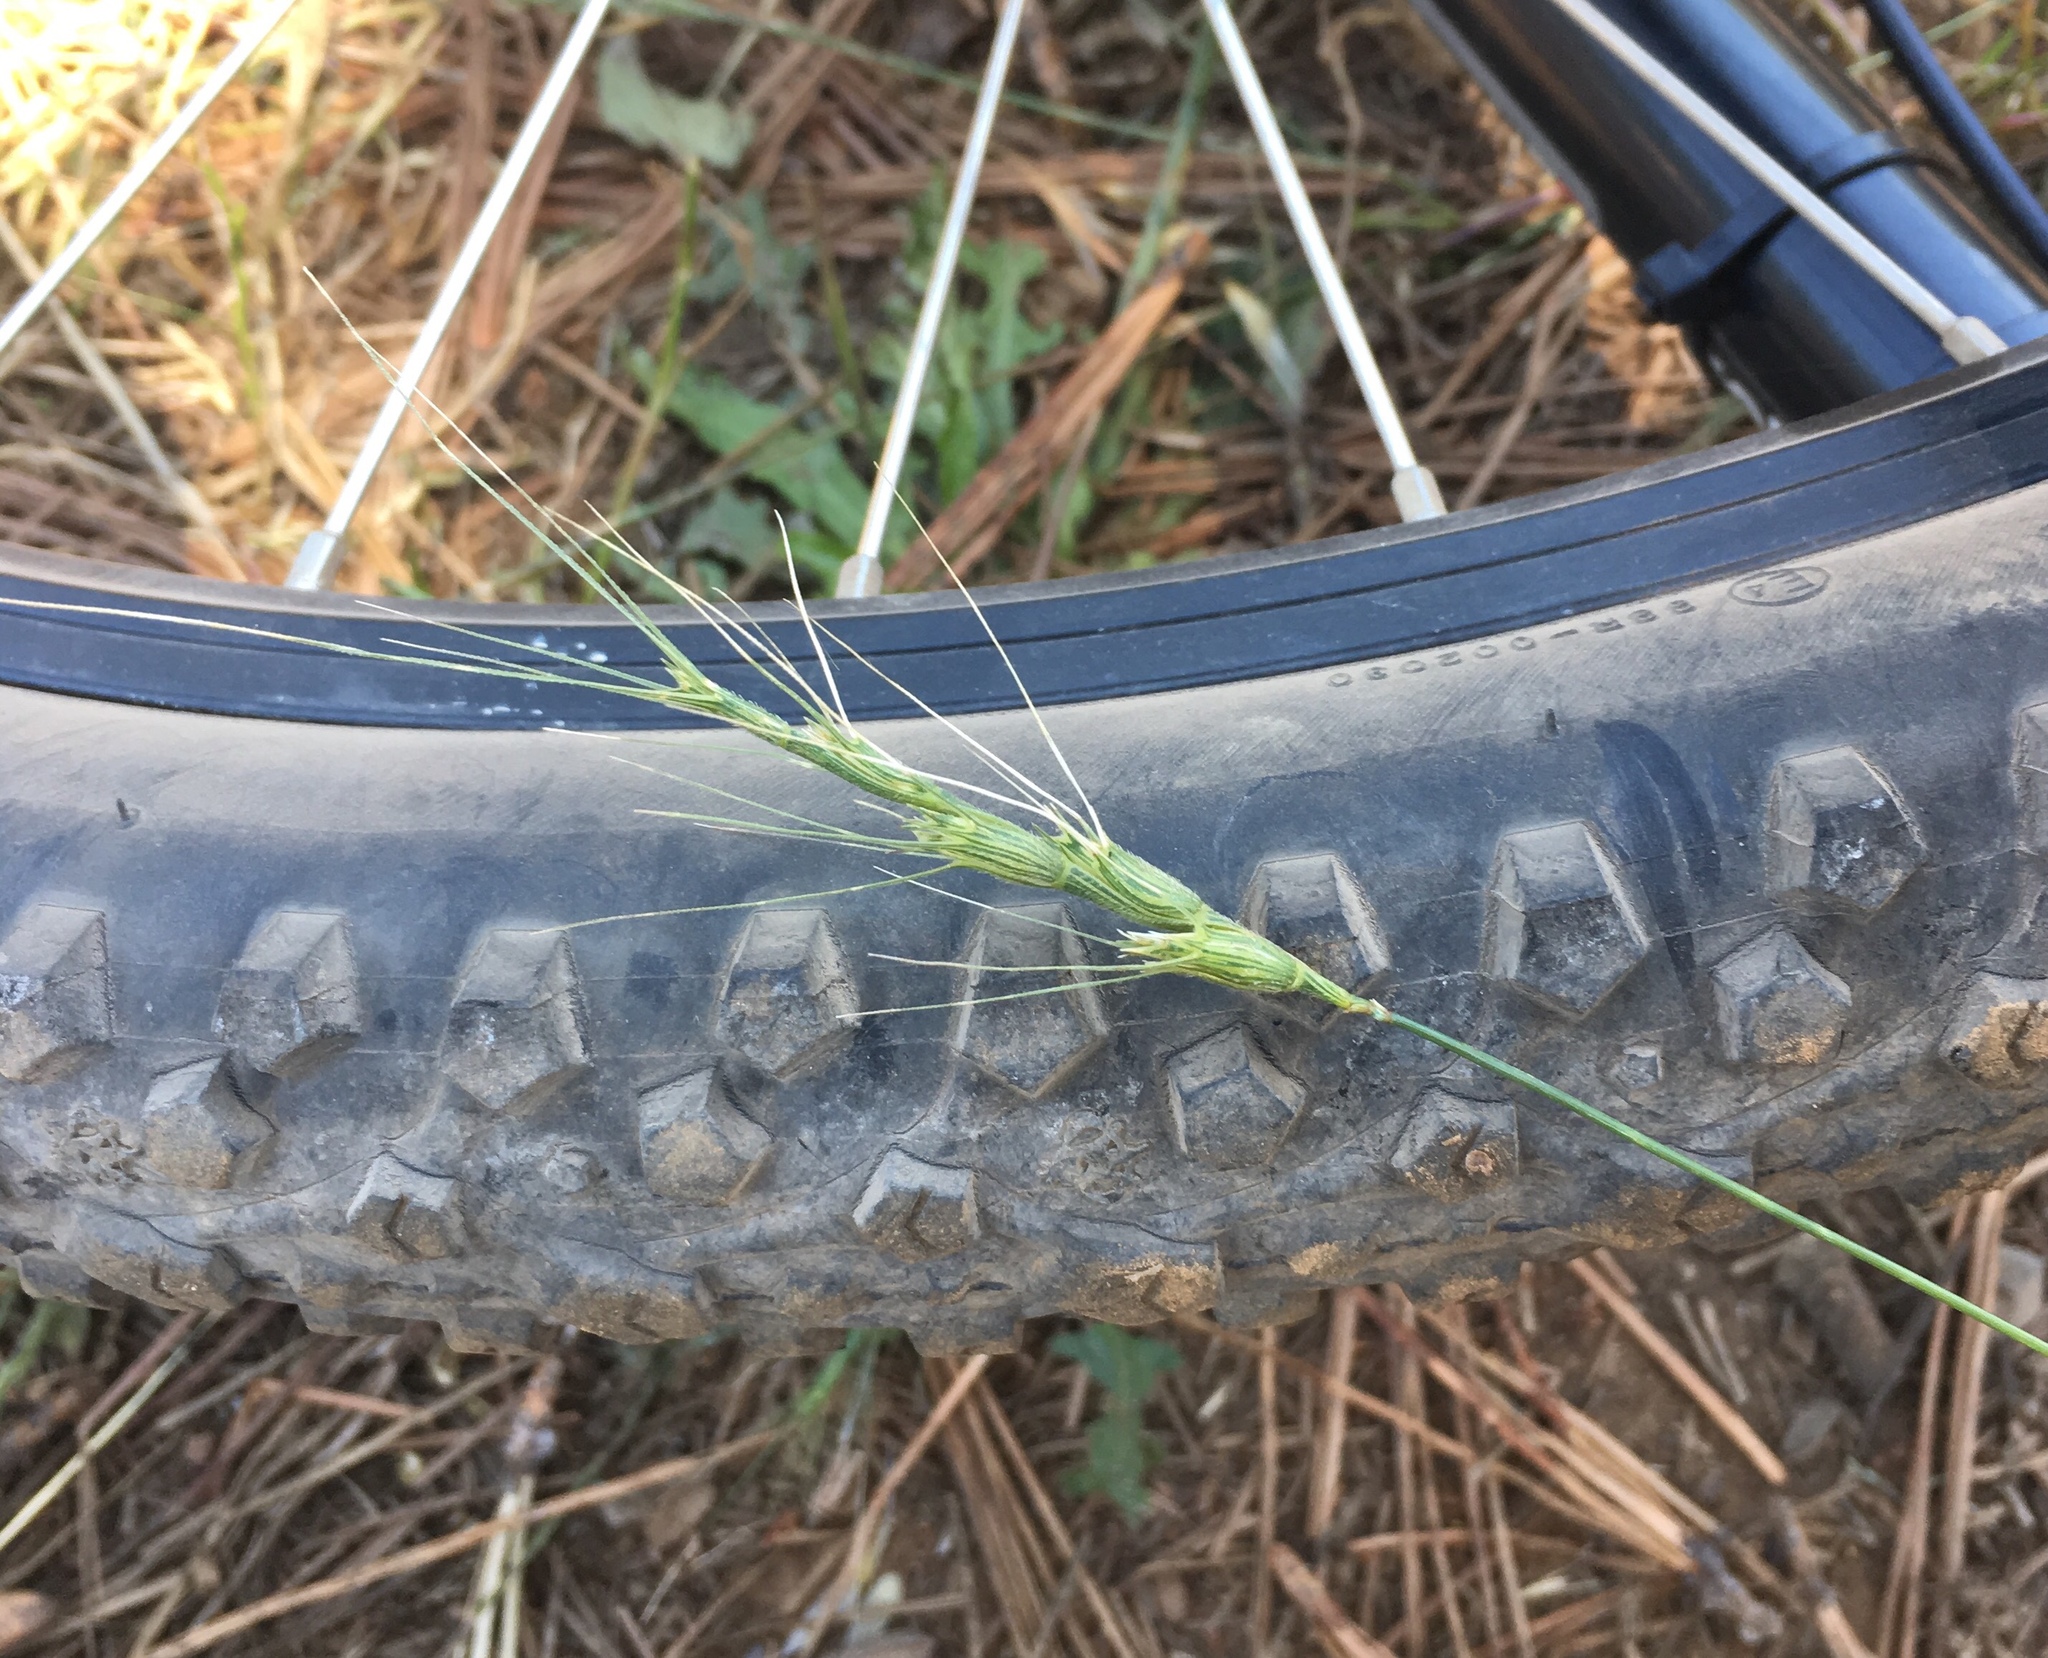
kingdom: Plantae
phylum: Tracheophyta
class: Liliopsida
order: Poales
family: Poaceae
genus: Aegilops
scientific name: Aegilops triuncialis
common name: Barb goat grass
